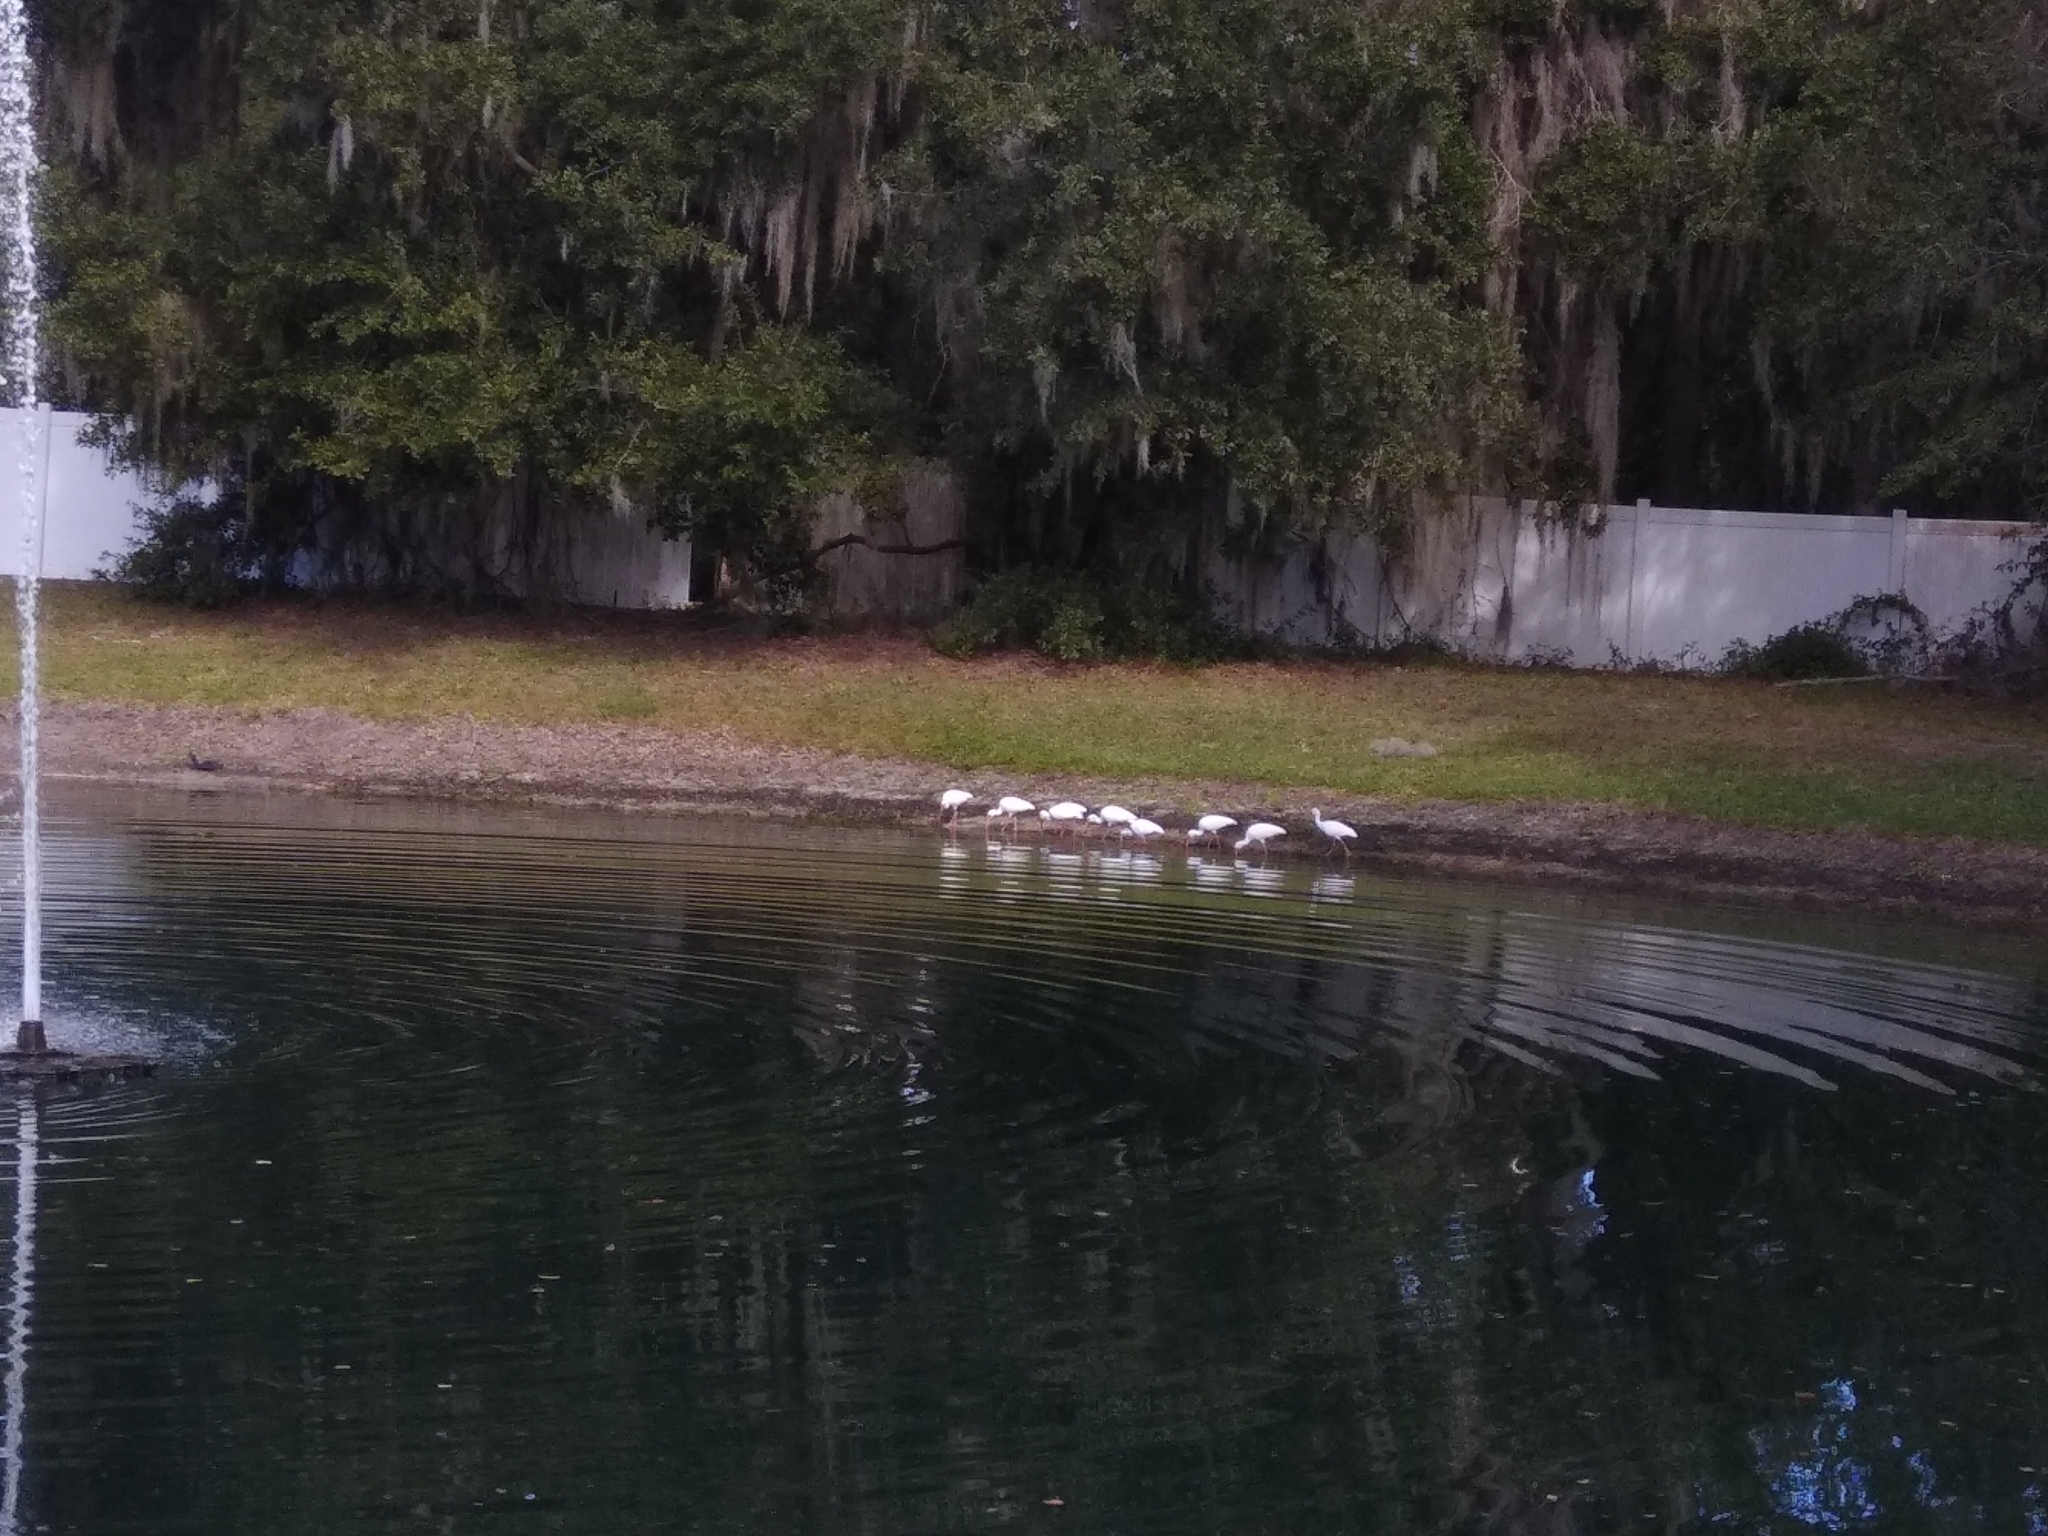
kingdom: Animalia
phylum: Chordata
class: Aves
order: Pelecaniformes
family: Threskiornithidae
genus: Eudocimus
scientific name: Eudocimus albus
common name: White ibis
